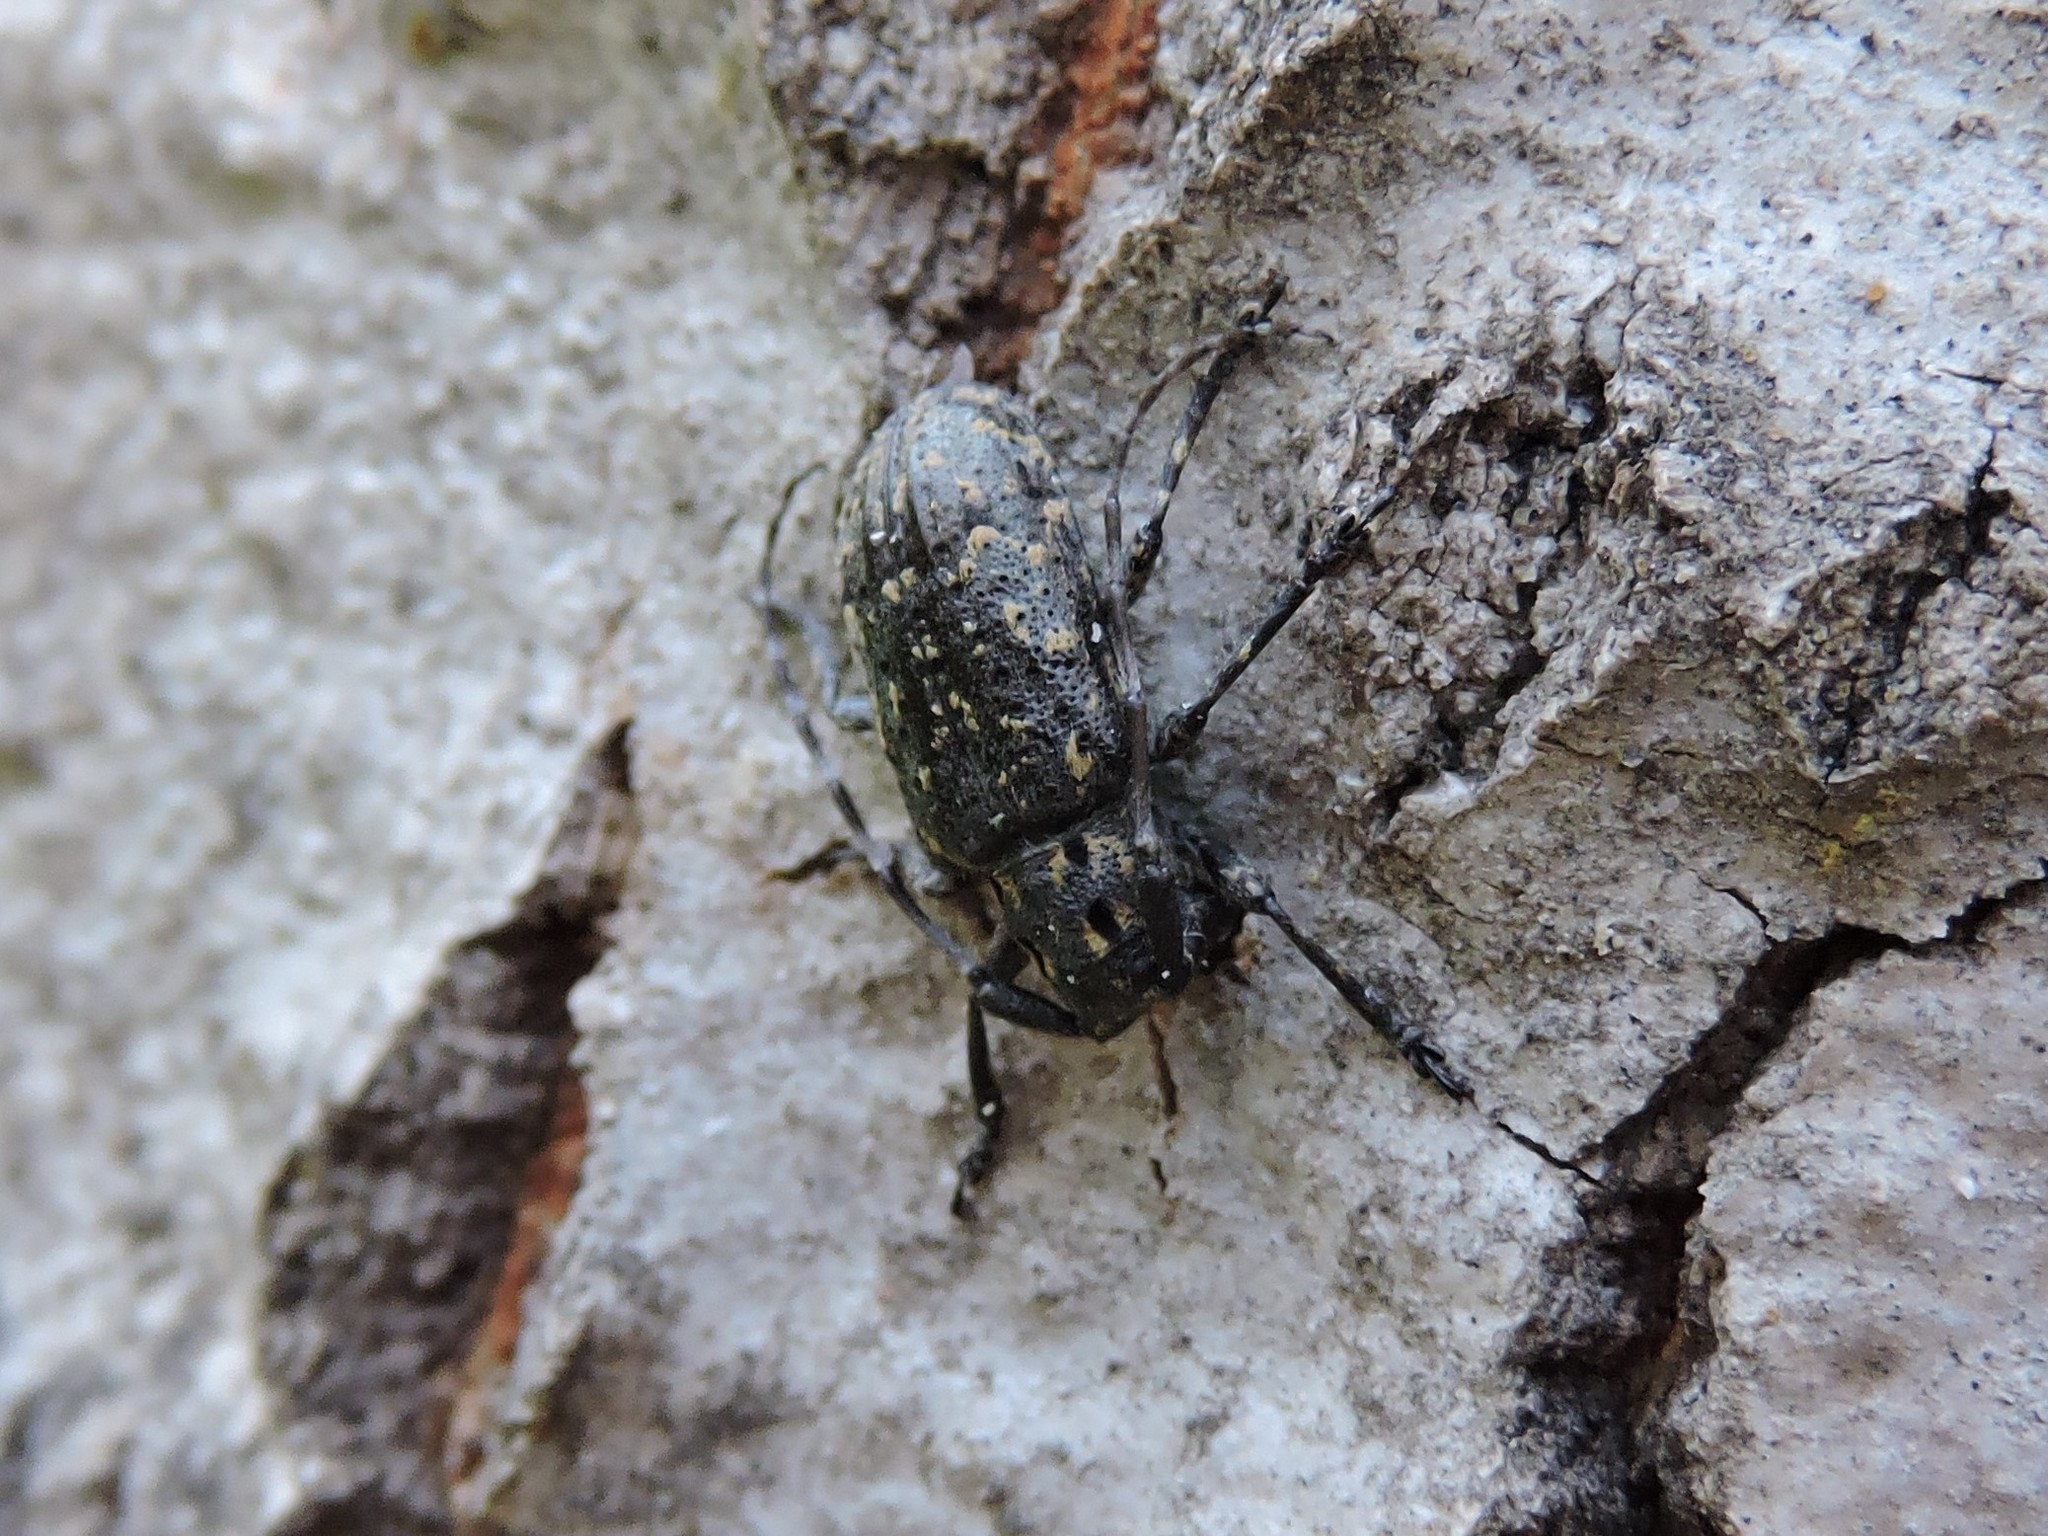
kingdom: Animalia
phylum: Arthropoda
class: Insecta
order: Coleoptera
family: Cerambycidae
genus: Mesosa
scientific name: Mesosa myops
